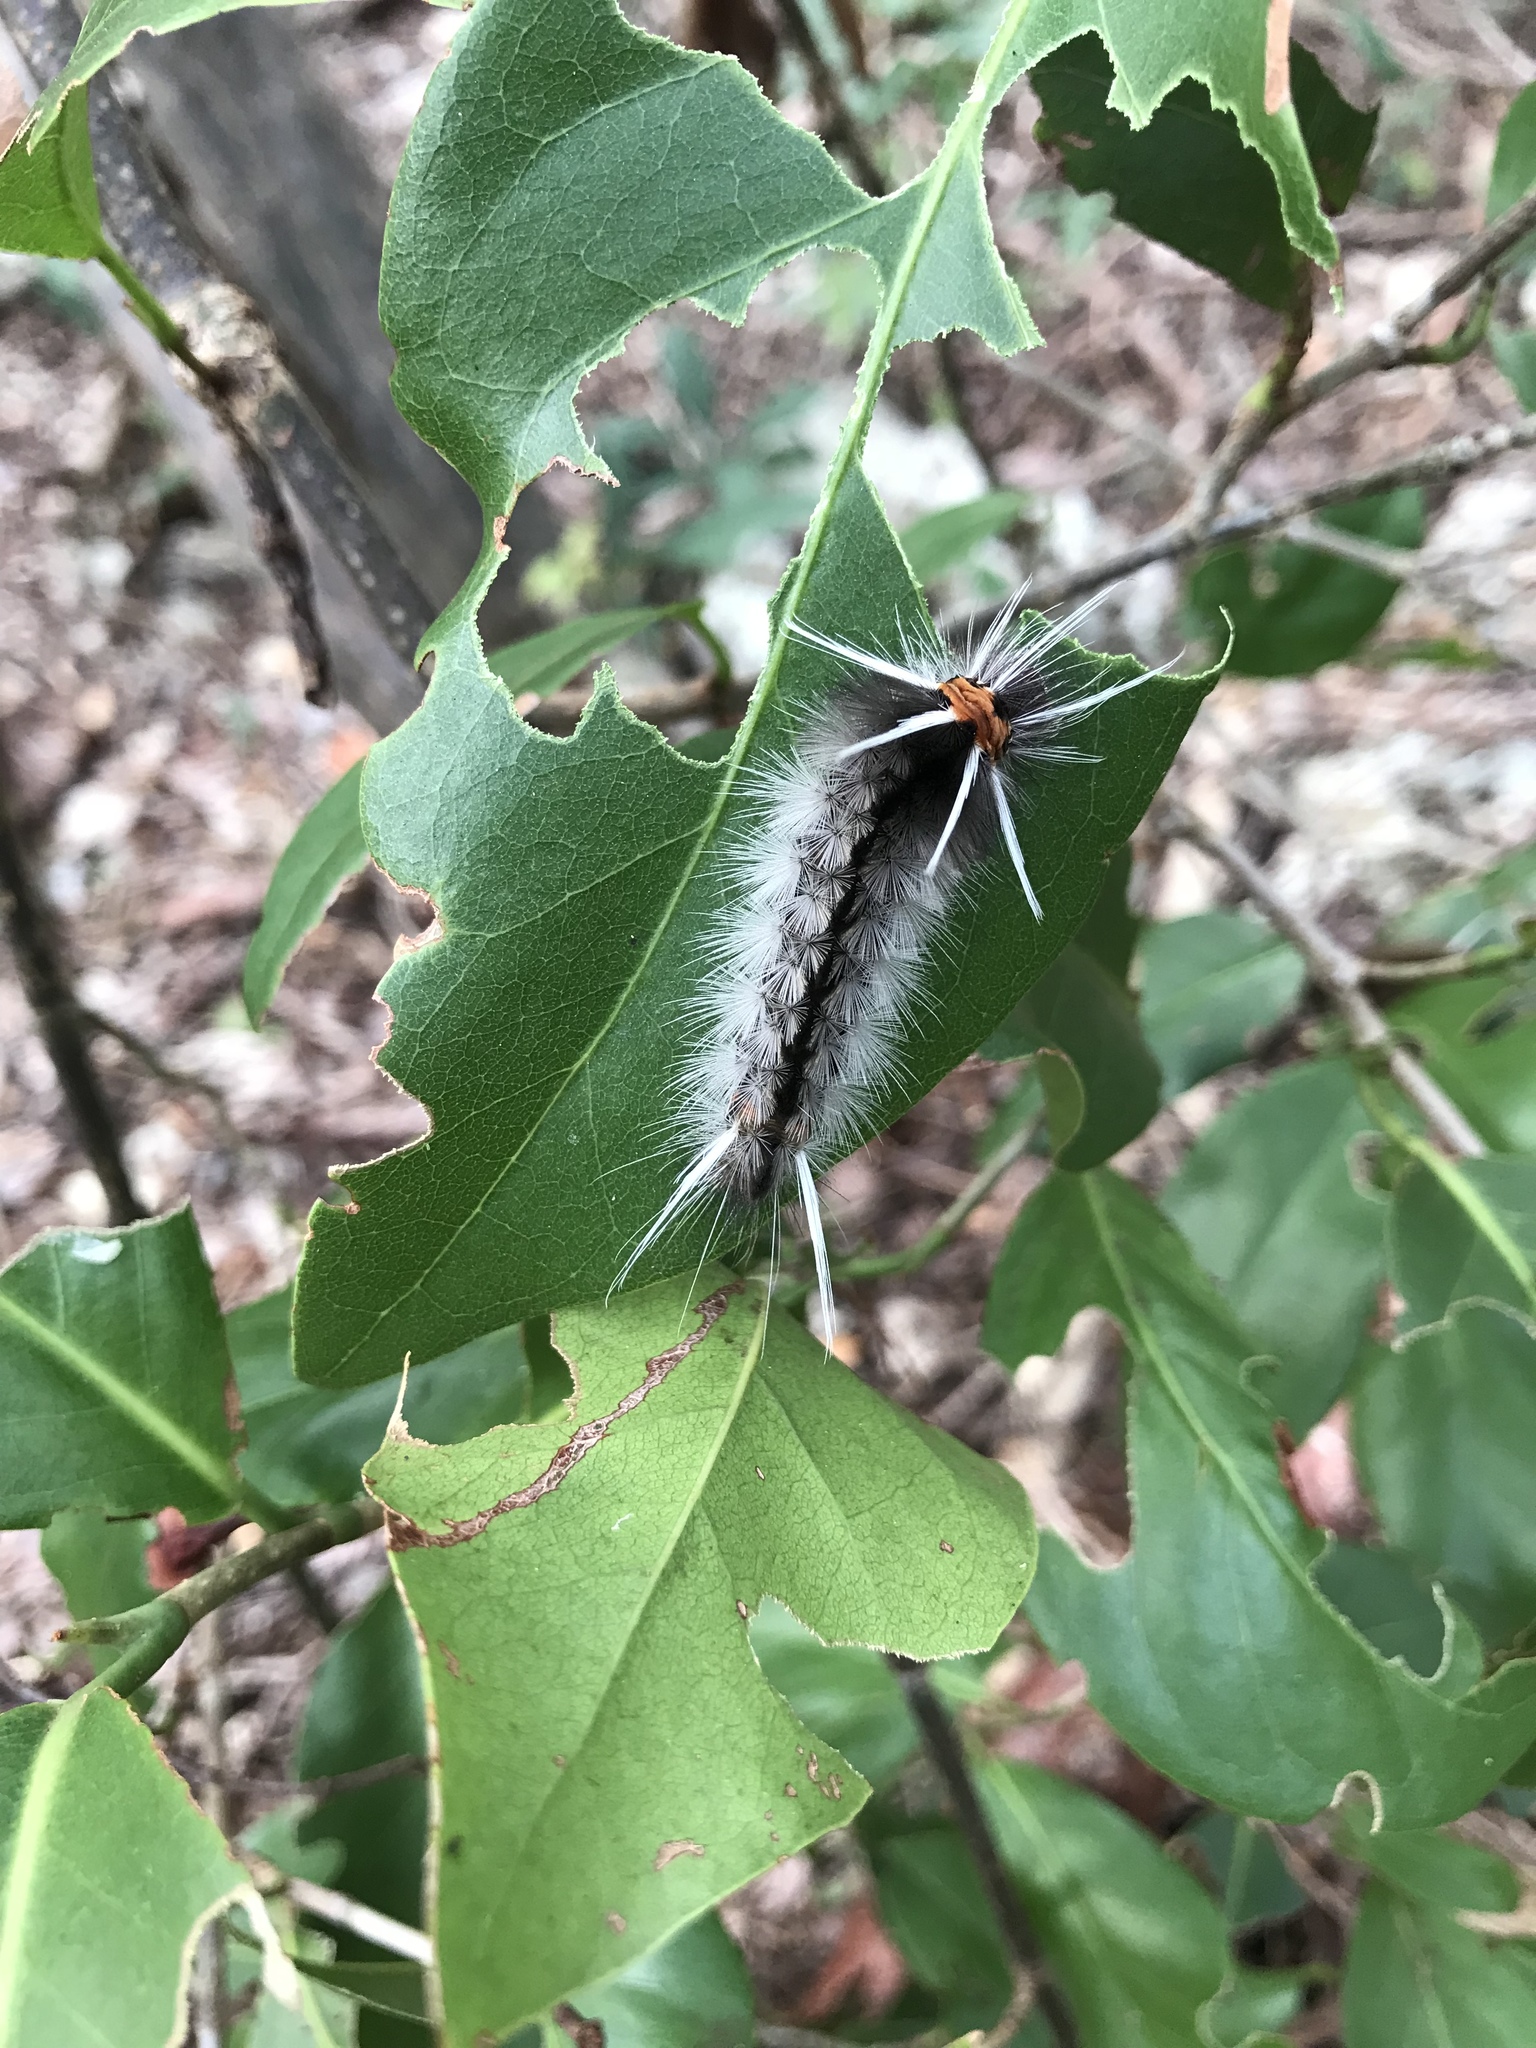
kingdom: Animalia
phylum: Arthropoda
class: Insecta
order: Lepidoptera
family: Erebidae
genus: Halysidota
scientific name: Halysidota cinctipes
